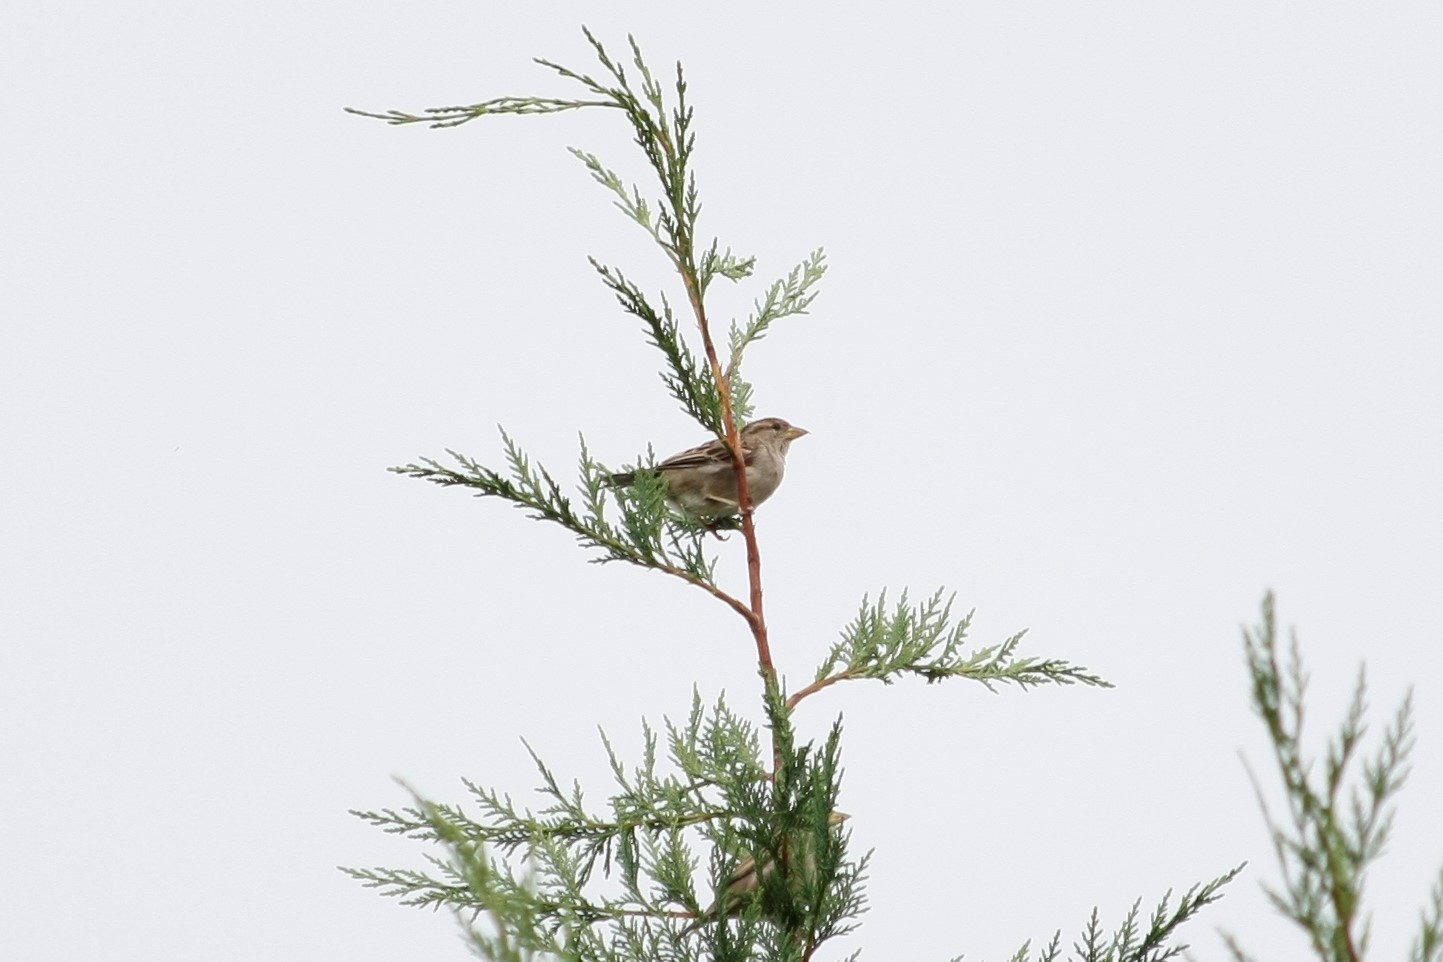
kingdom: Animalia
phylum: Chordata
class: Aves
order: Passeriformes
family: Passeridae
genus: Passer
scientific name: Passer domesticus
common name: House sparrow
